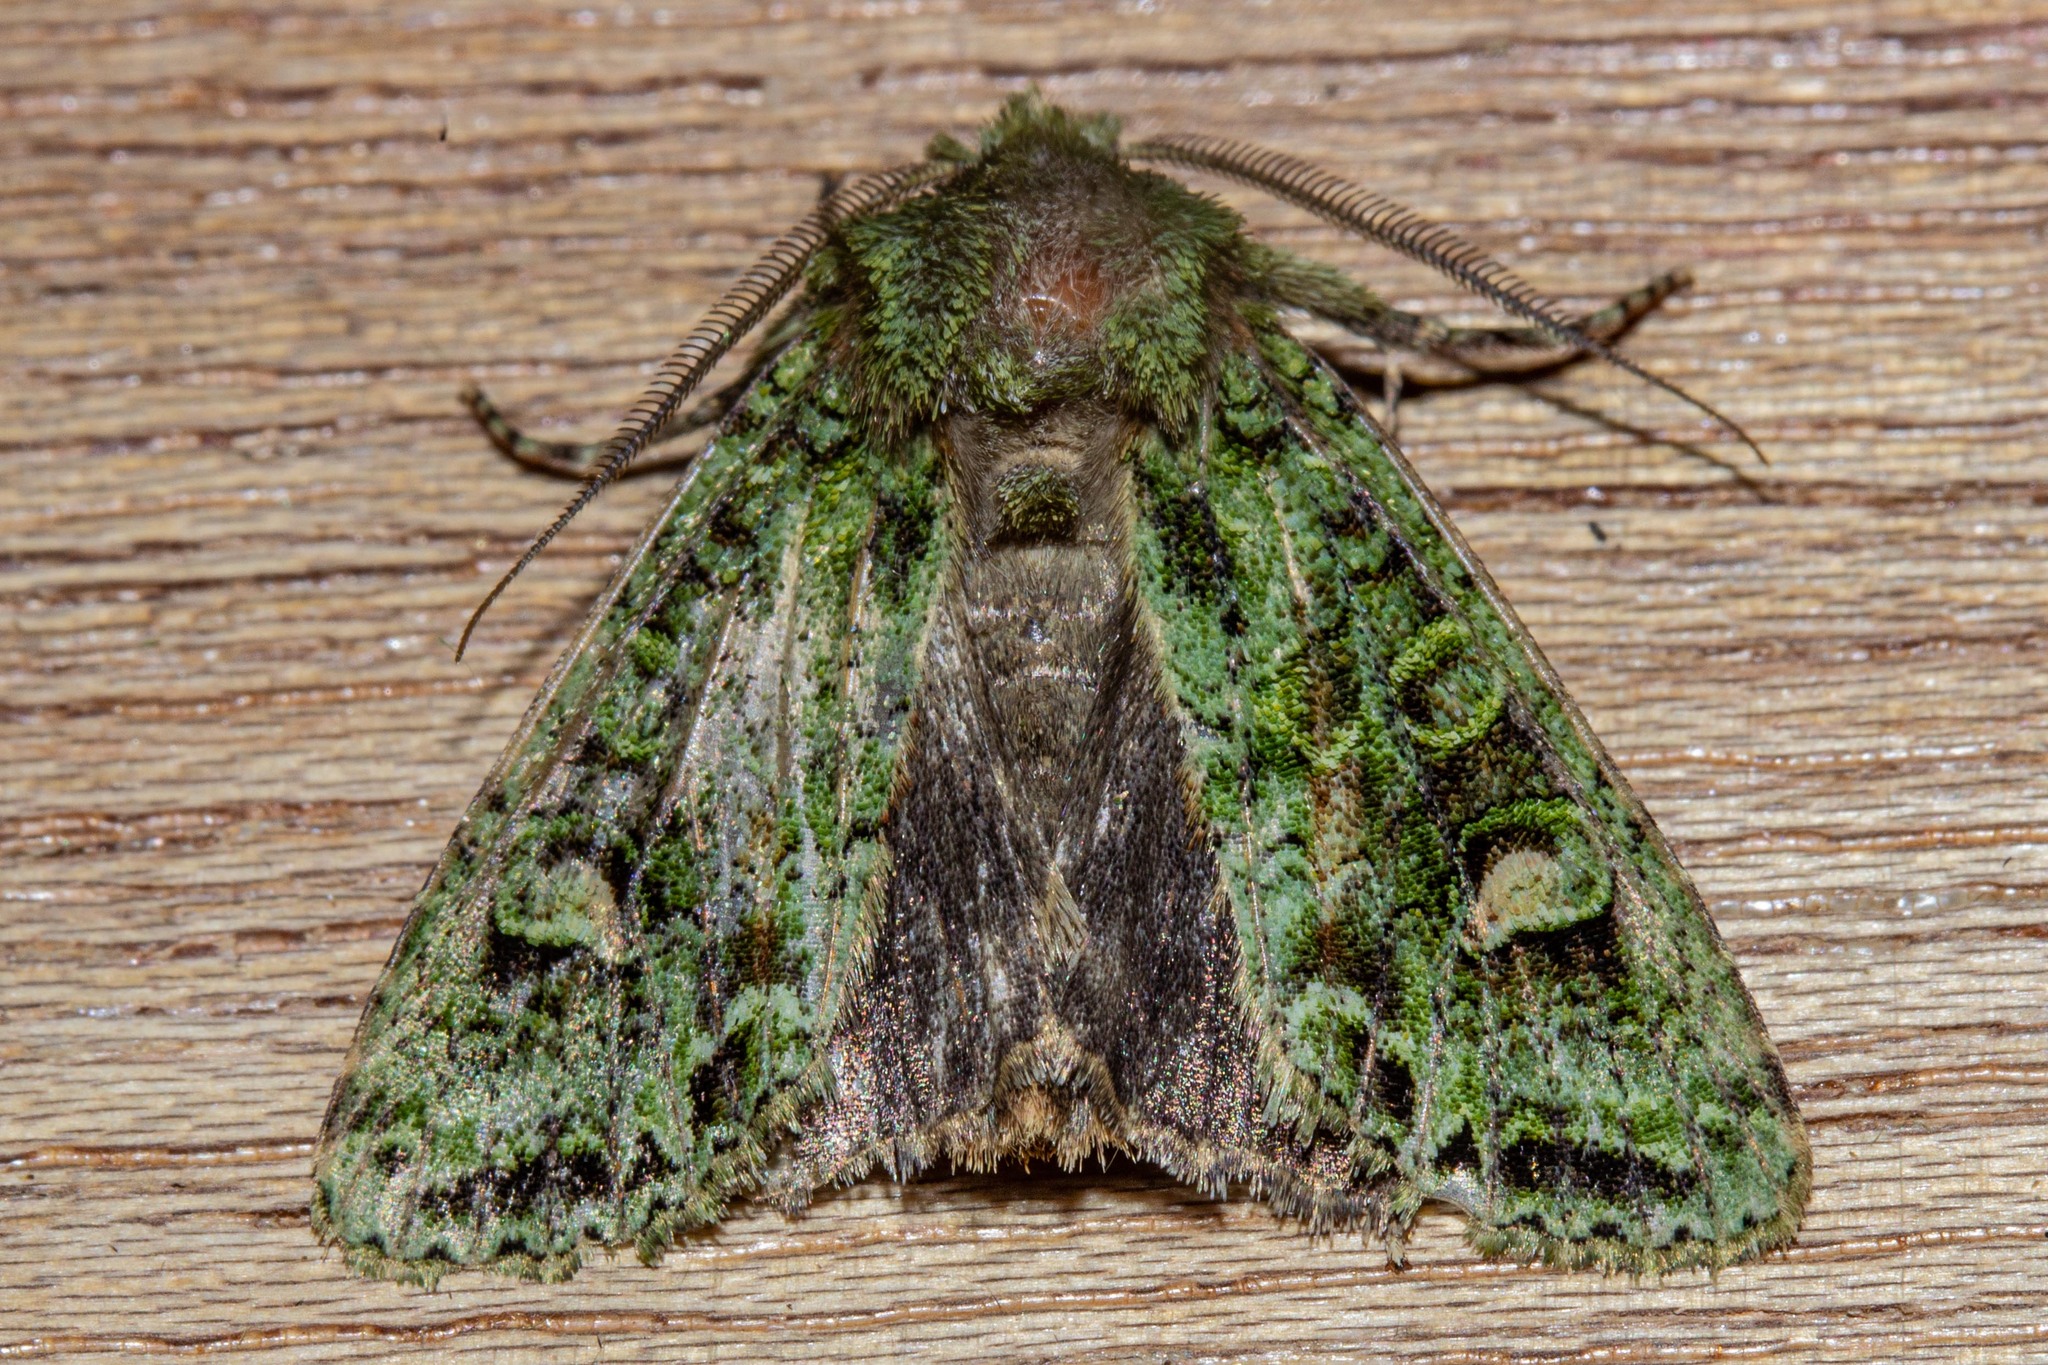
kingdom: Animalia
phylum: Arthropoda
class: Insecta
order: Lepidoptera
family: Noctuidae
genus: Ichneutica
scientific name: Ichneutica
